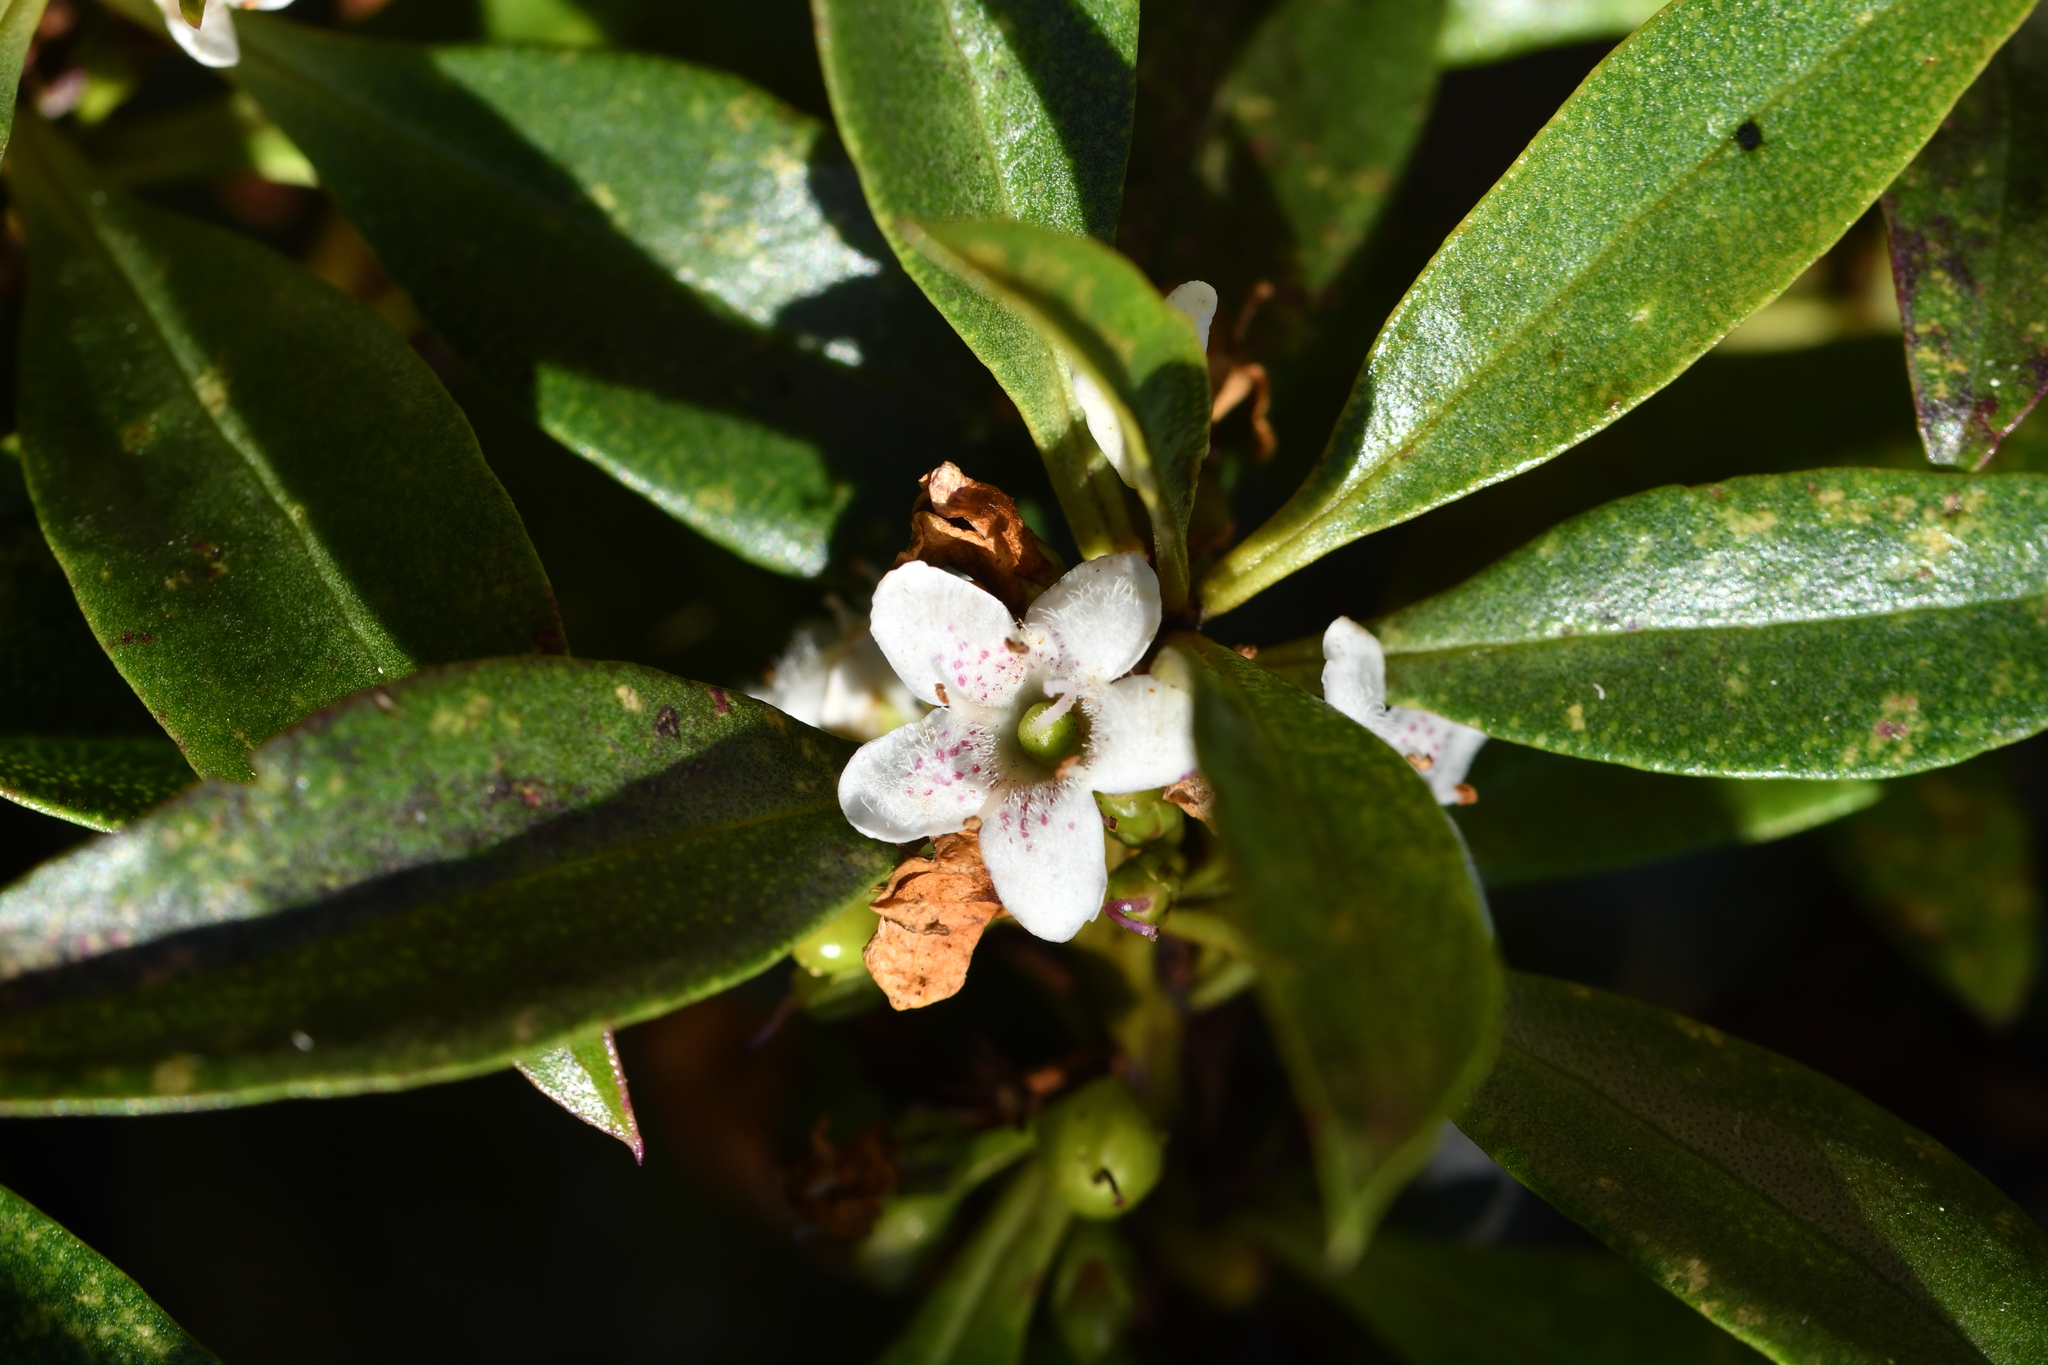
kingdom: Plantae
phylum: Tracheophyta
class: Magnoliopsida
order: Lamiales
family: Scrophulariaceae
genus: Myoporum
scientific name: Myoporum laetum
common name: Ngaio tree
